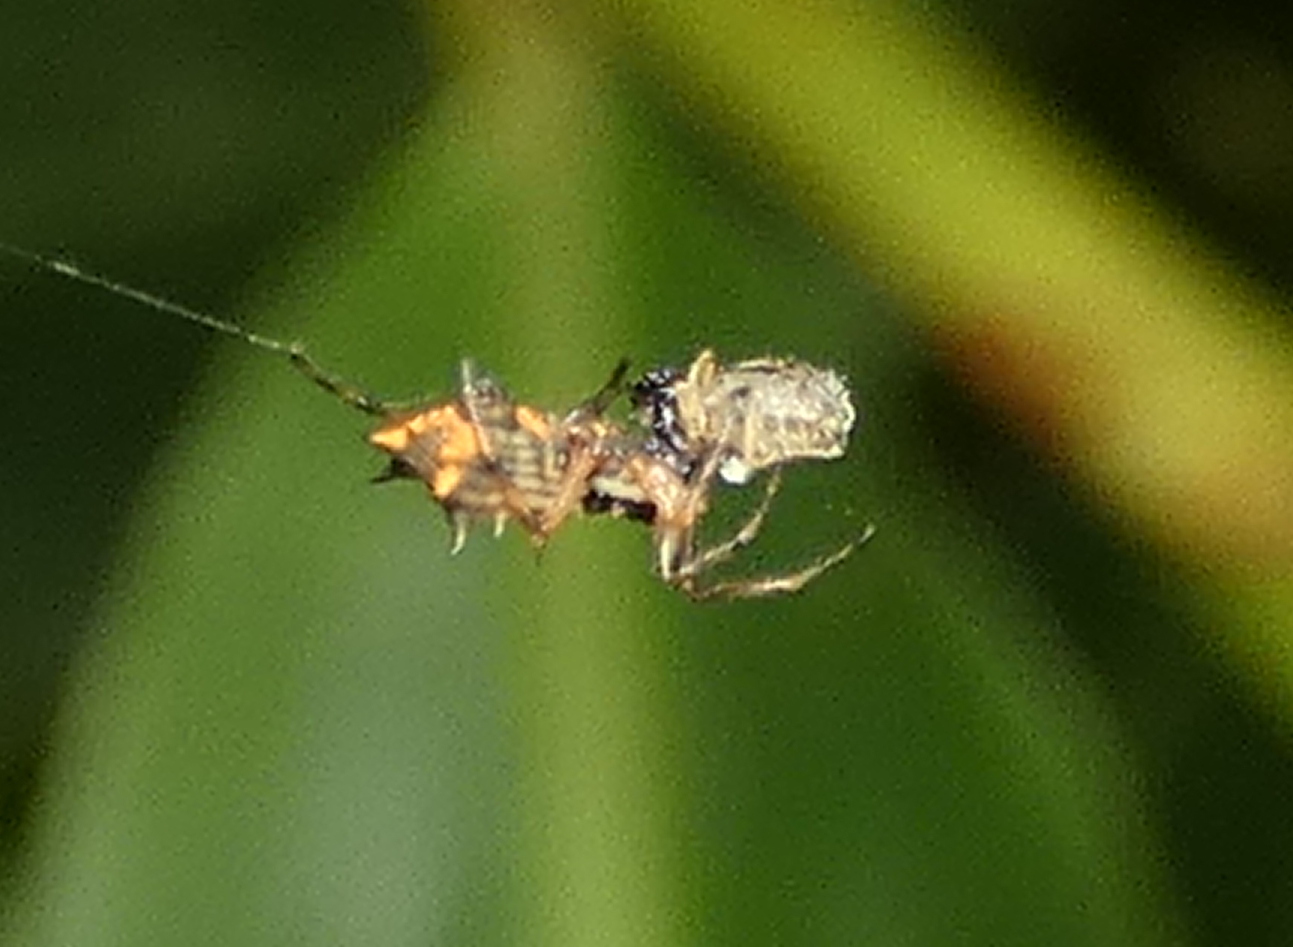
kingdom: Animalia
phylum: Arthropoda
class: Arachnida
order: Araneae
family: Araneidae
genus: Micrathena
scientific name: Micrathena picta
